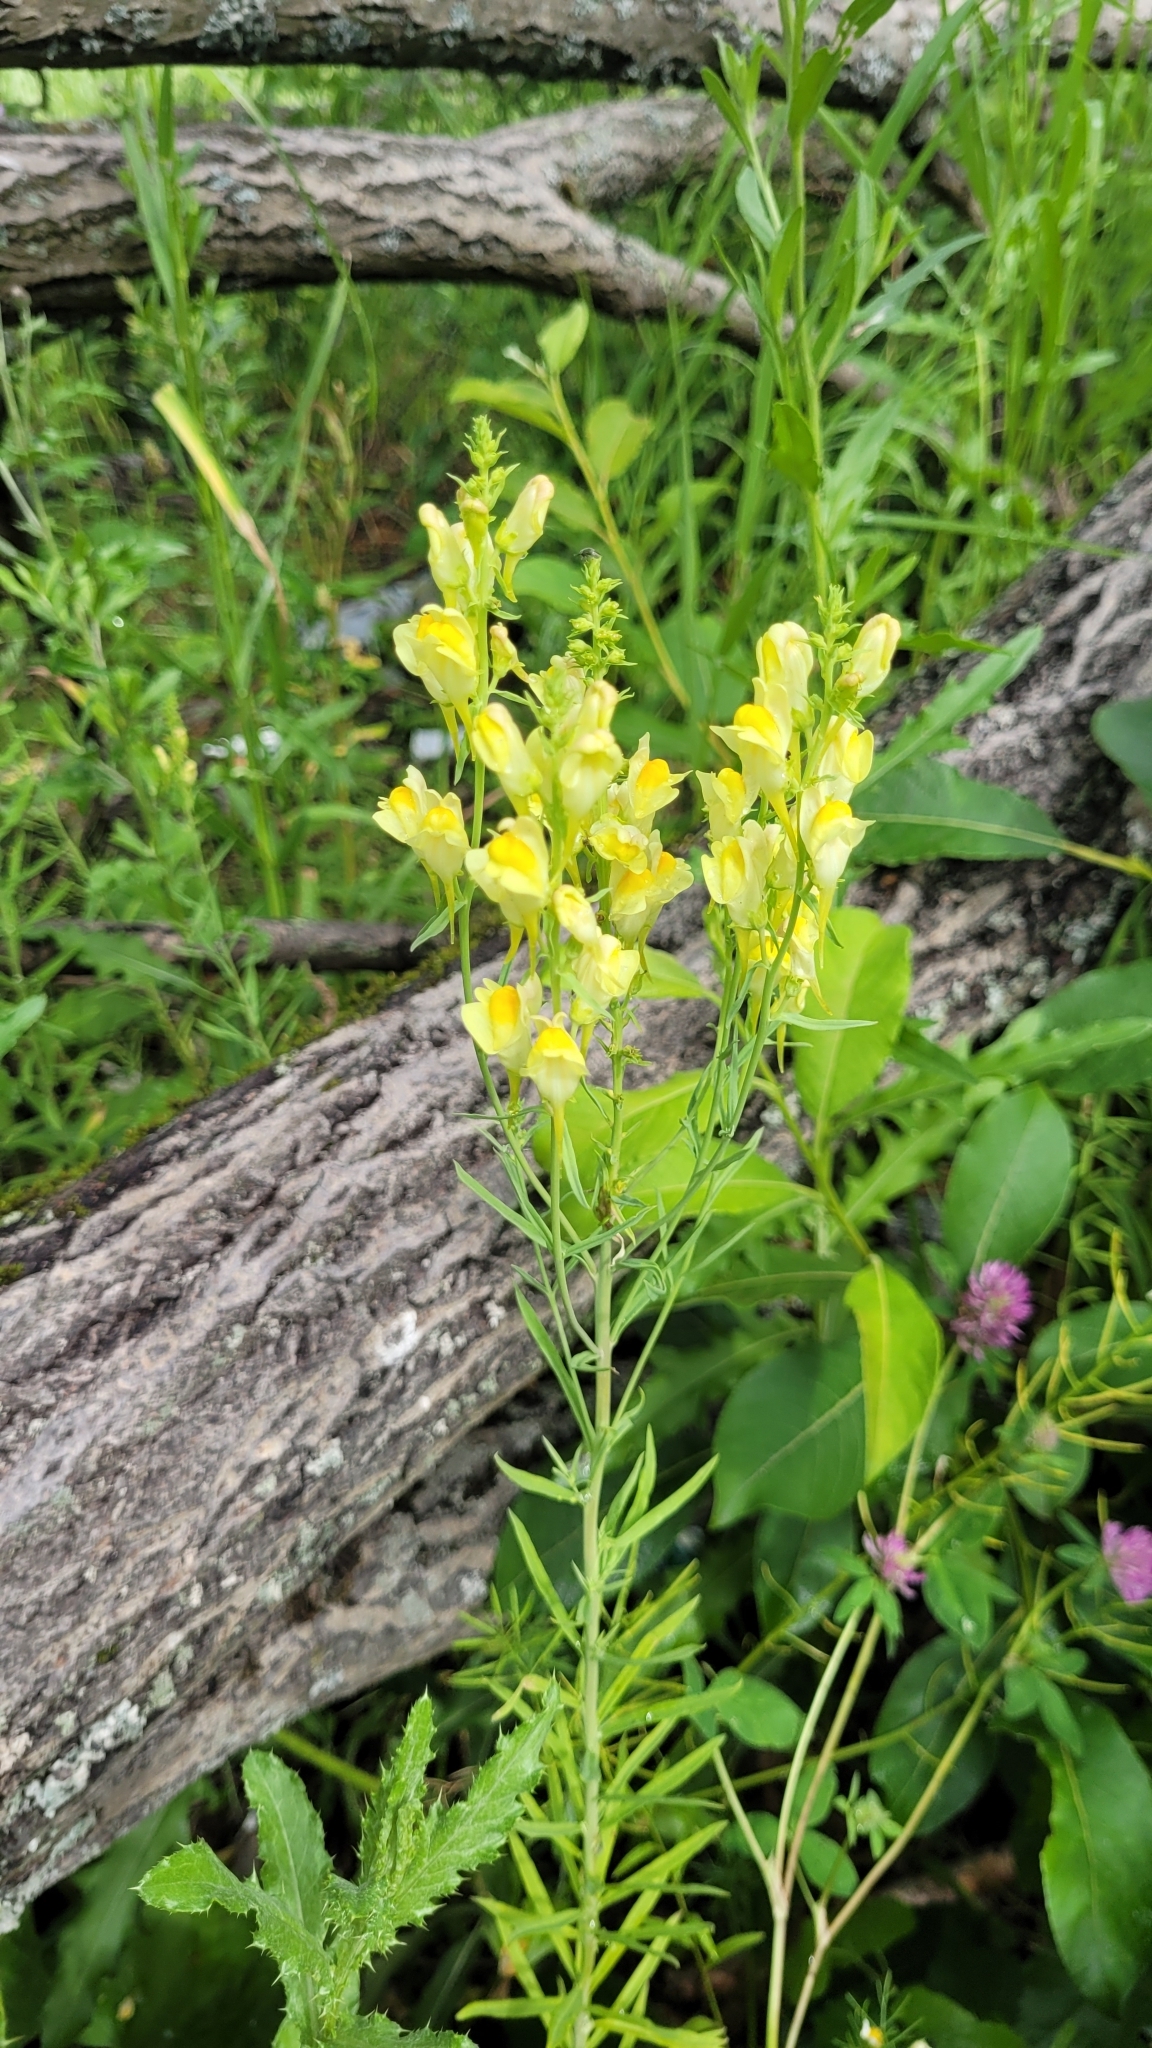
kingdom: Plantae
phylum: Tracheophyta
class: Magnoliopsida
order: Lamiales
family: Plantaginaceae
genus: Linaria
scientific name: Linaria vulgaris
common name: Butter and eggs
